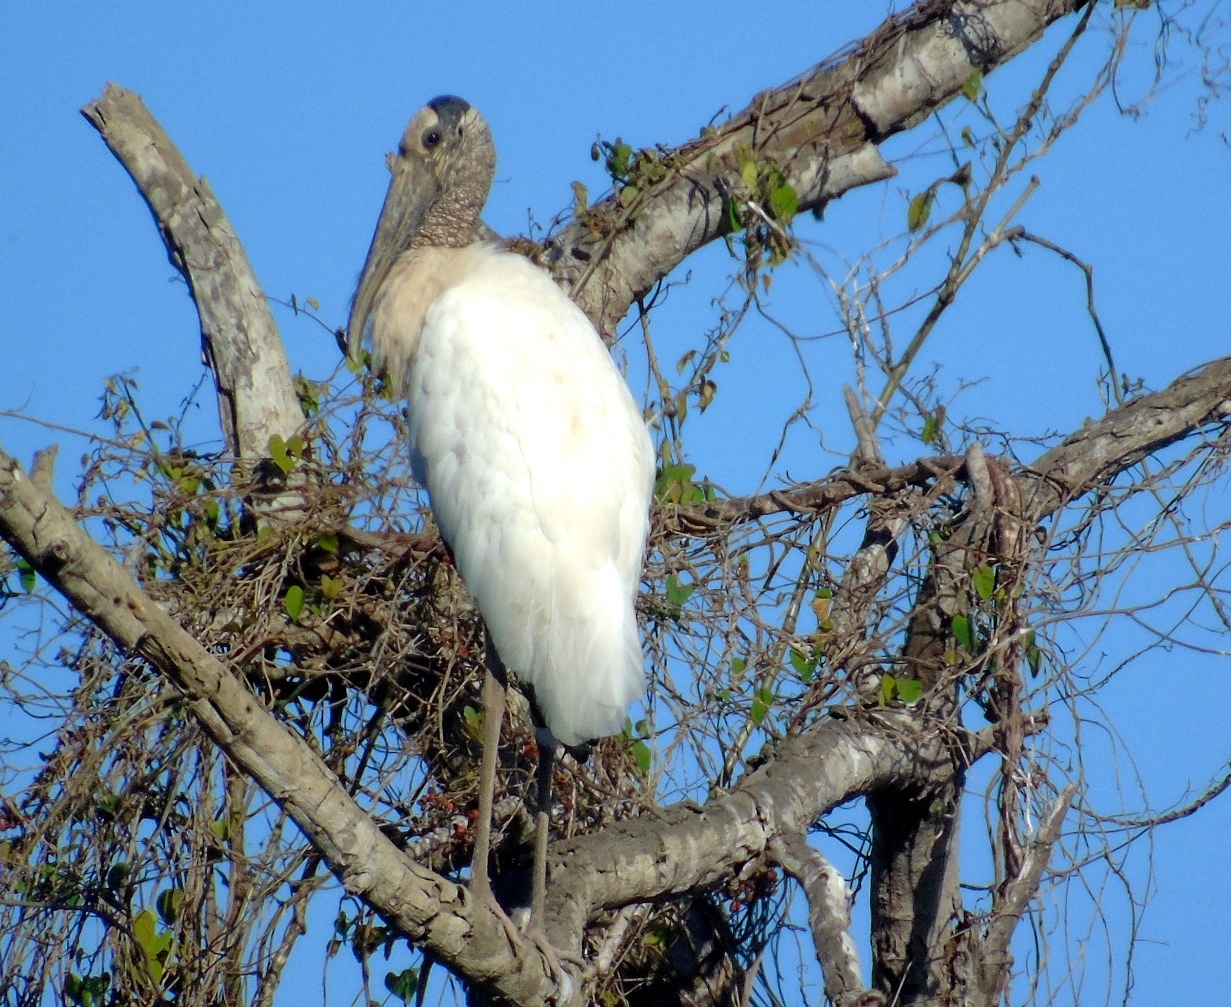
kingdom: Animalia
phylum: Chordata
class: Aves
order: Ciconiiformes
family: Ciconiidae
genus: Mycteria
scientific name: Mycteria americana
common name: Wood stork
